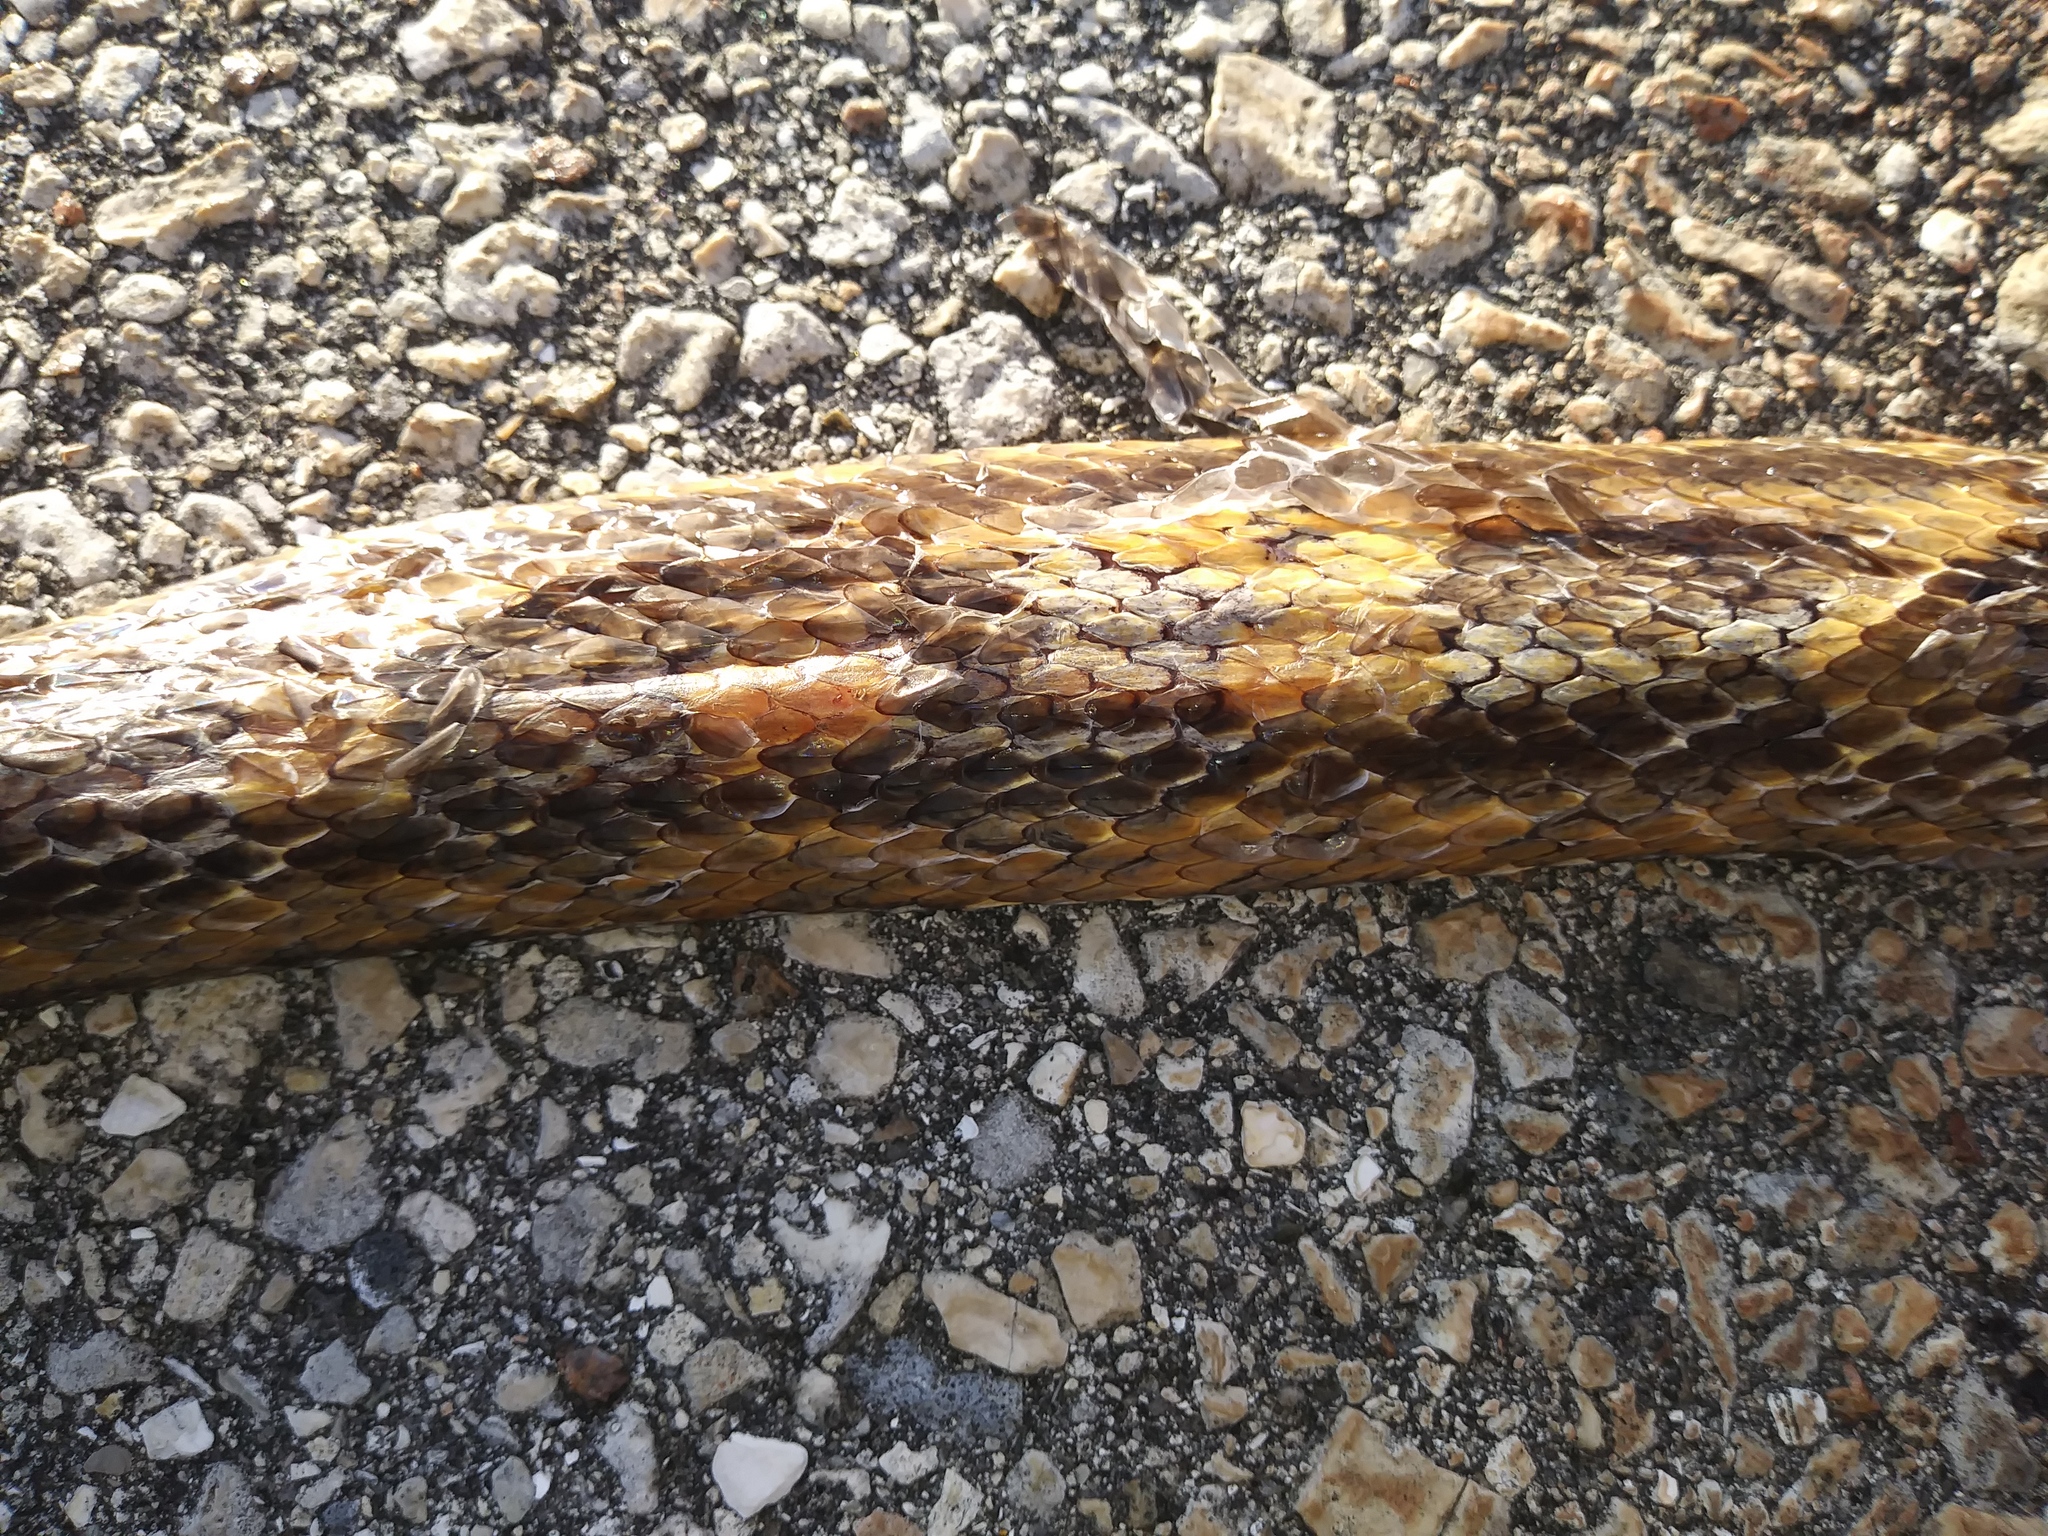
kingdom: Animalia
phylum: Chordata
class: Squamata
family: Colubridae
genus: Pantherophis
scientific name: Pantherophis alleghaniensis
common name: Eastern rat snake
